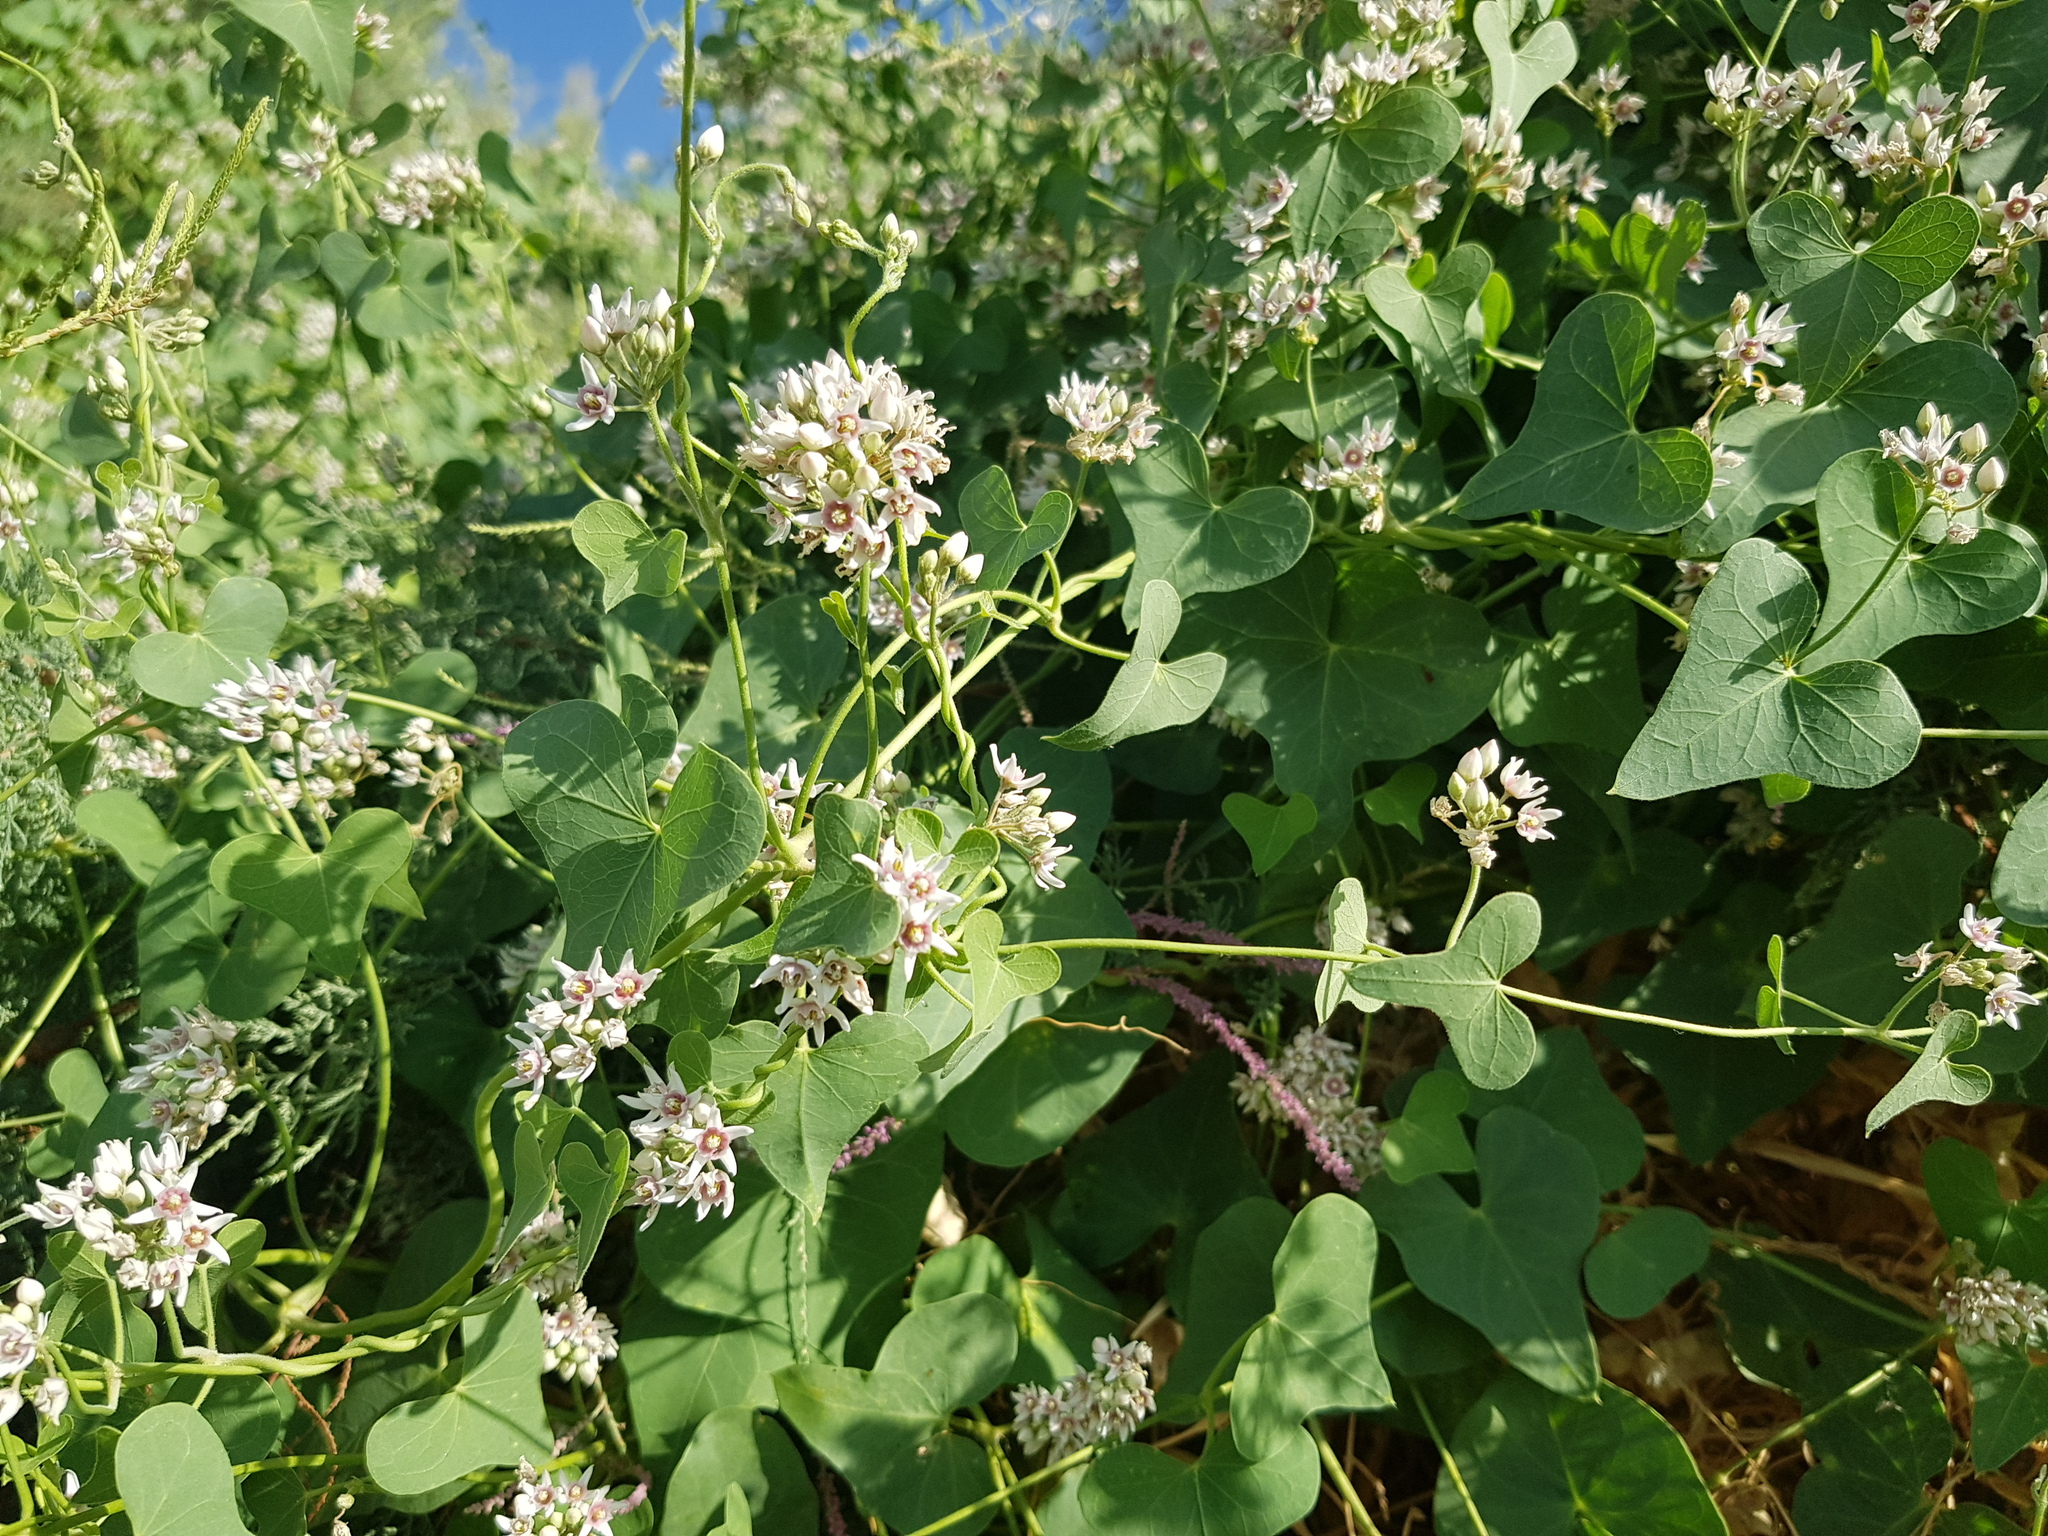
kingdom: Plantae
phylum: Tracheophyta
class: Magnoliopsida
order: Gentianales
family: Apocynaceae
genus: Cynanchum
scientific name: Cynanchum acutum
